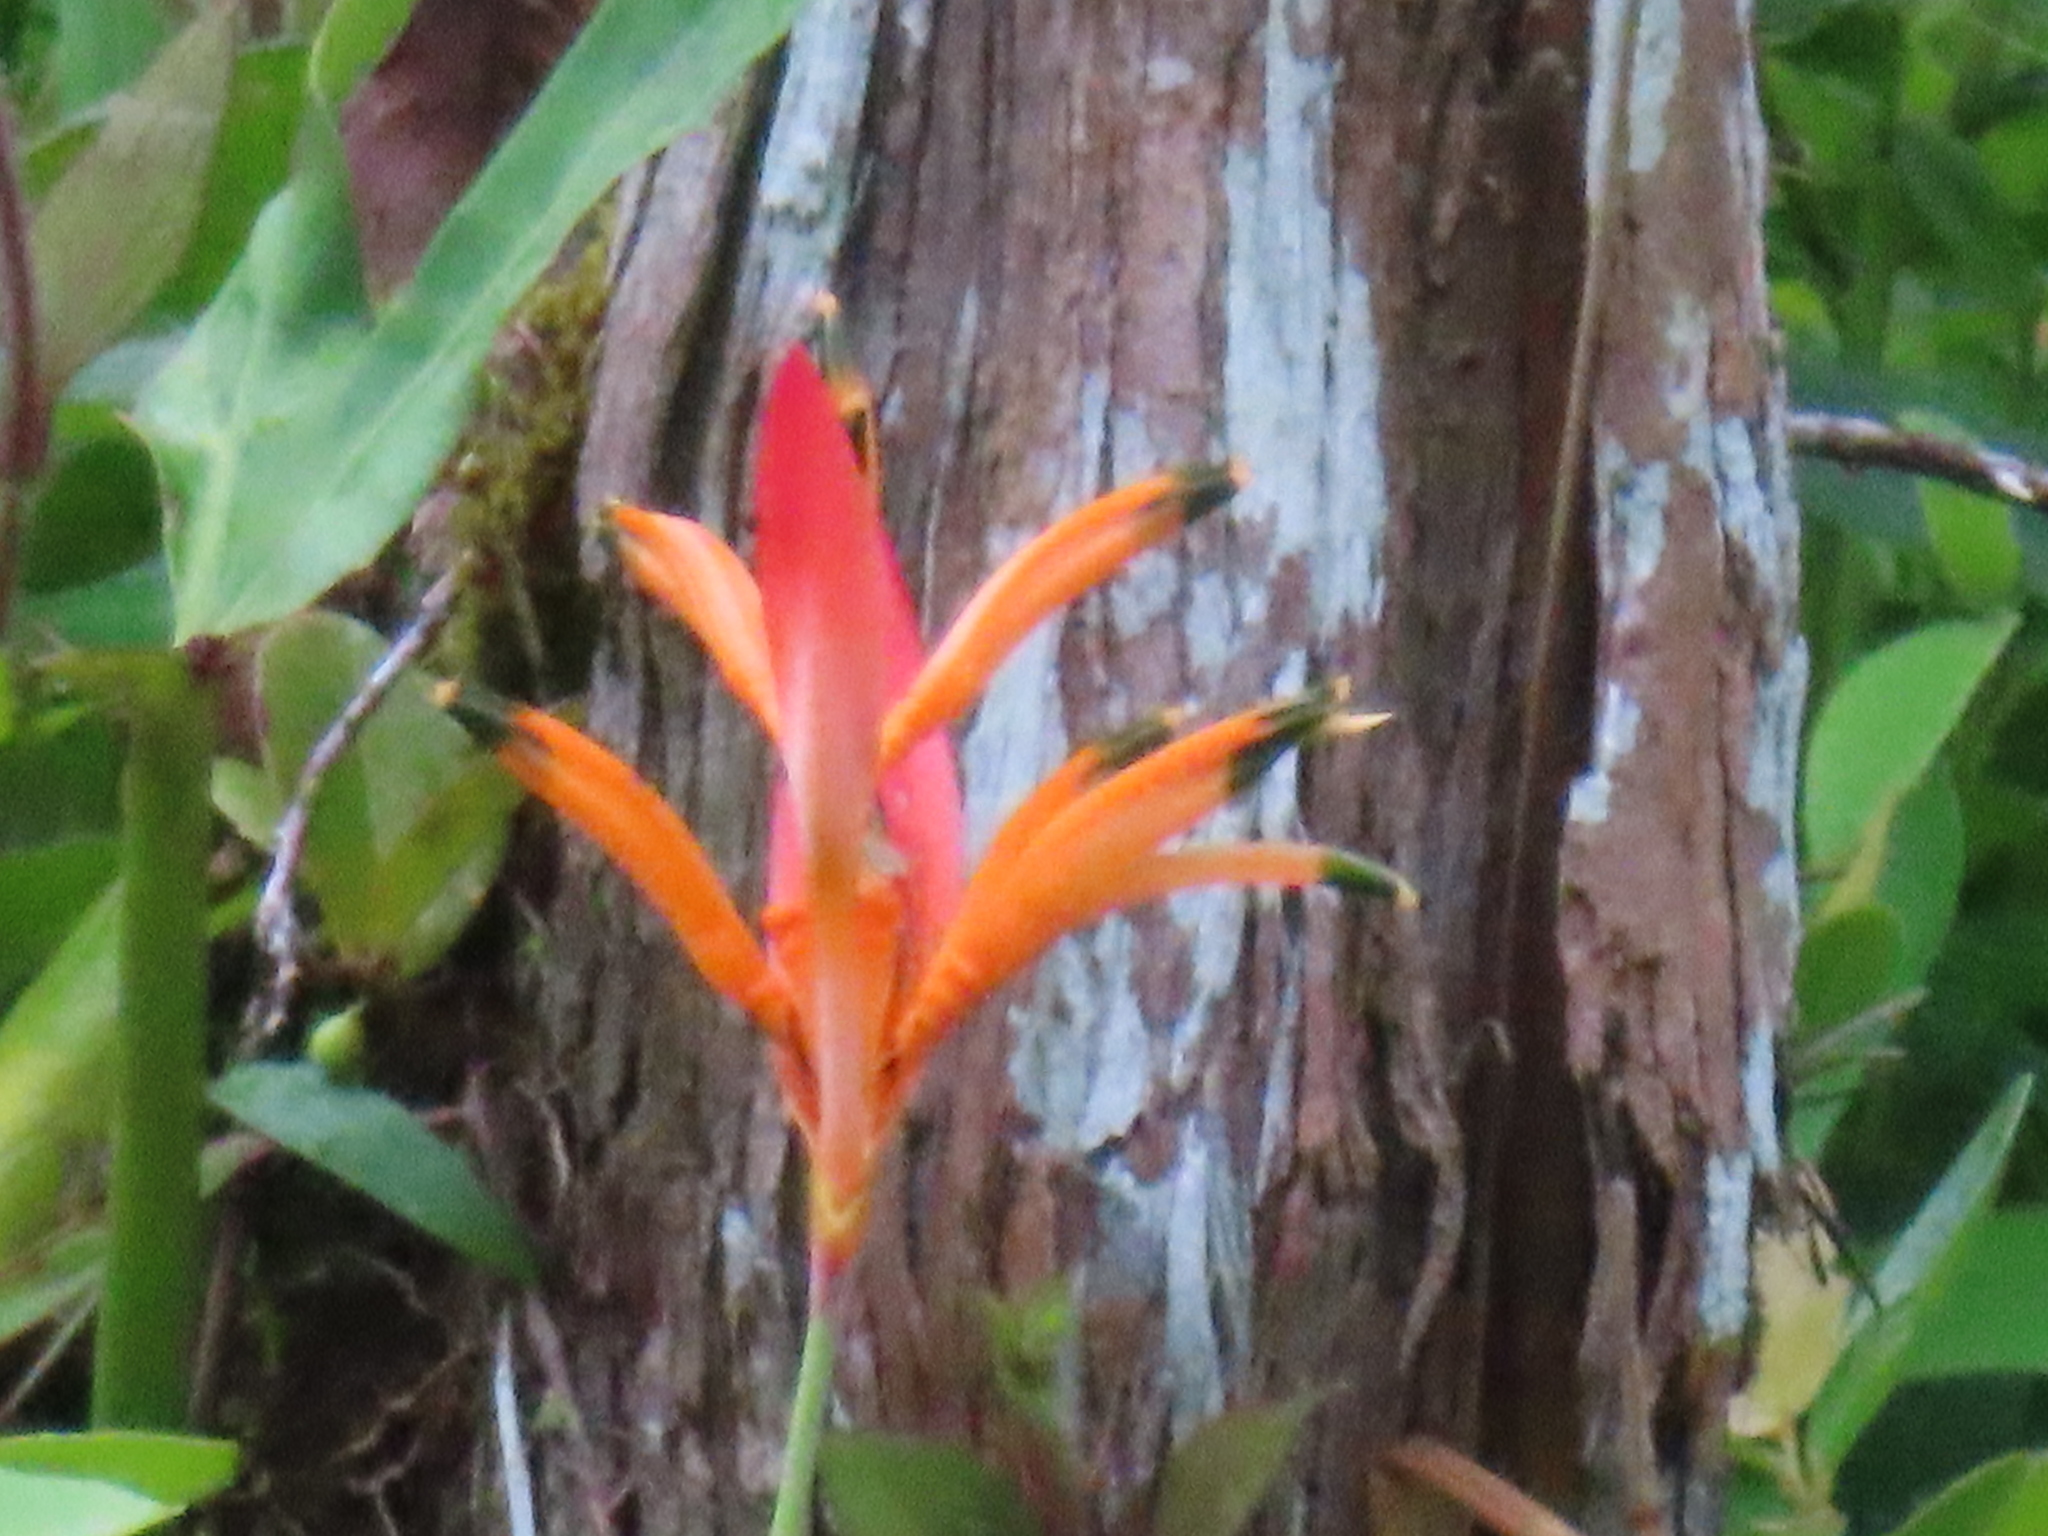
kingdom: Plantae
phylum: Tracheophyta
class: Liliopsida
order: Zingiberales
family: Heliconiaceae
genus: Heliconia
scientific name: Heliconia psittacorum
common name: Parrot's-flower
